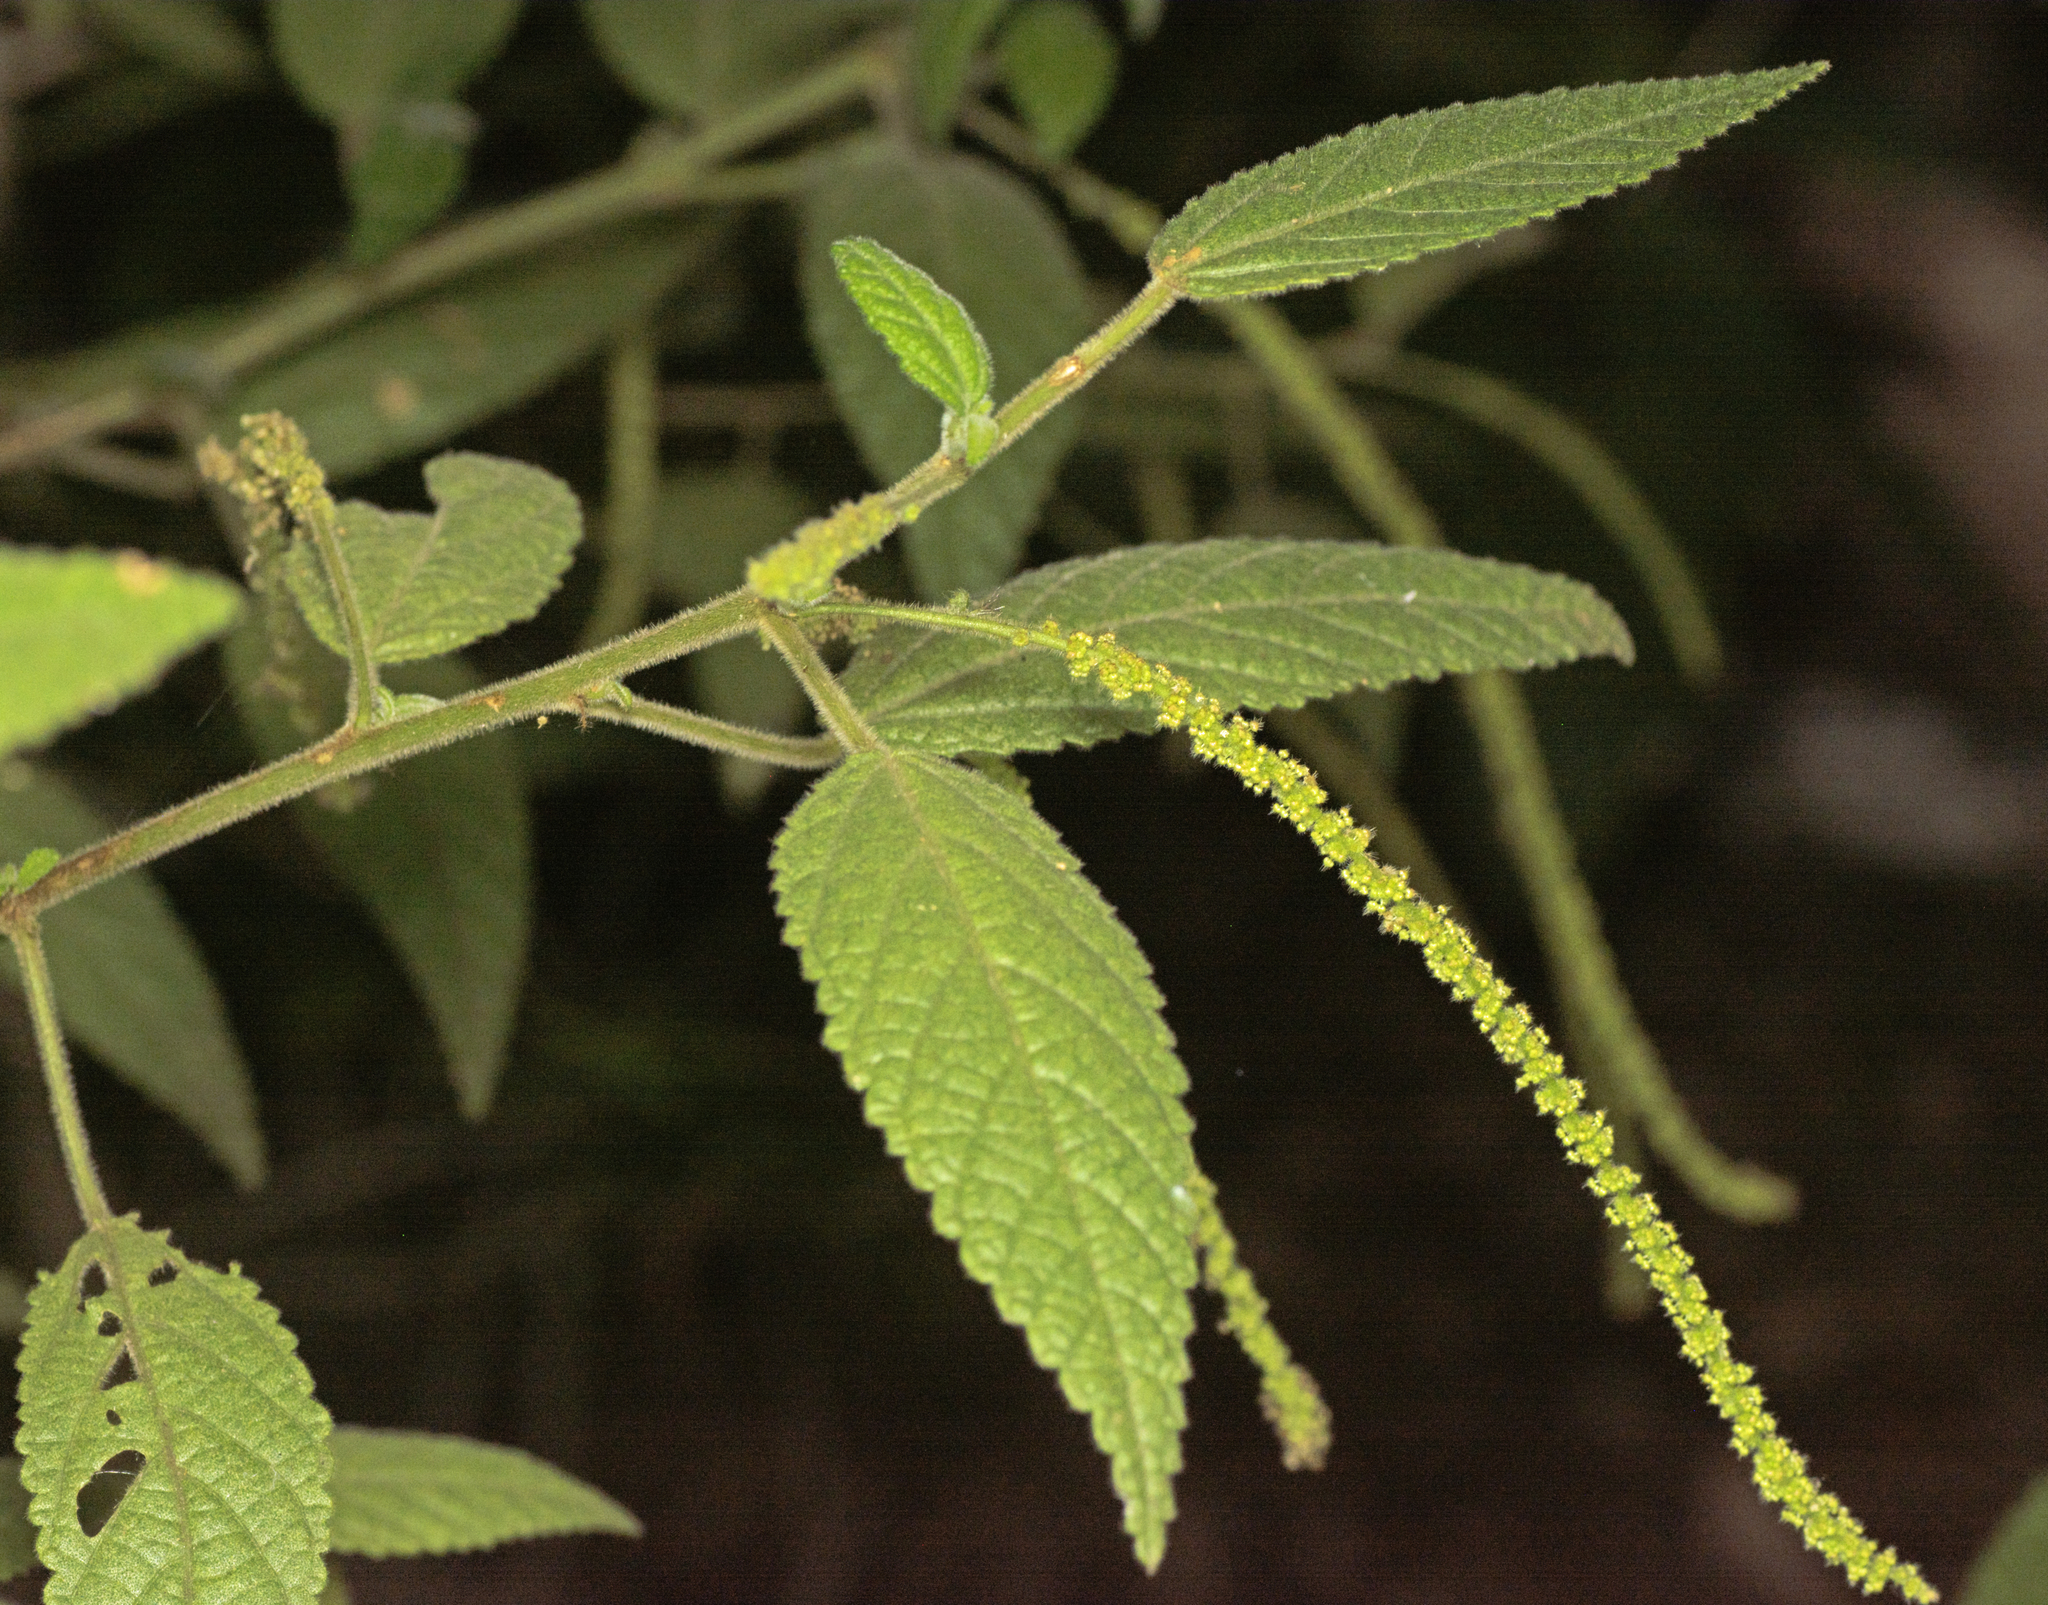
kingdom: Plantae
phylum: Tracheophyta
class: Magnoliopsida
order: Malpighiales
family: Euphorbiaceae
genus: Acalypha
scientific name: Acalypha nemorum
